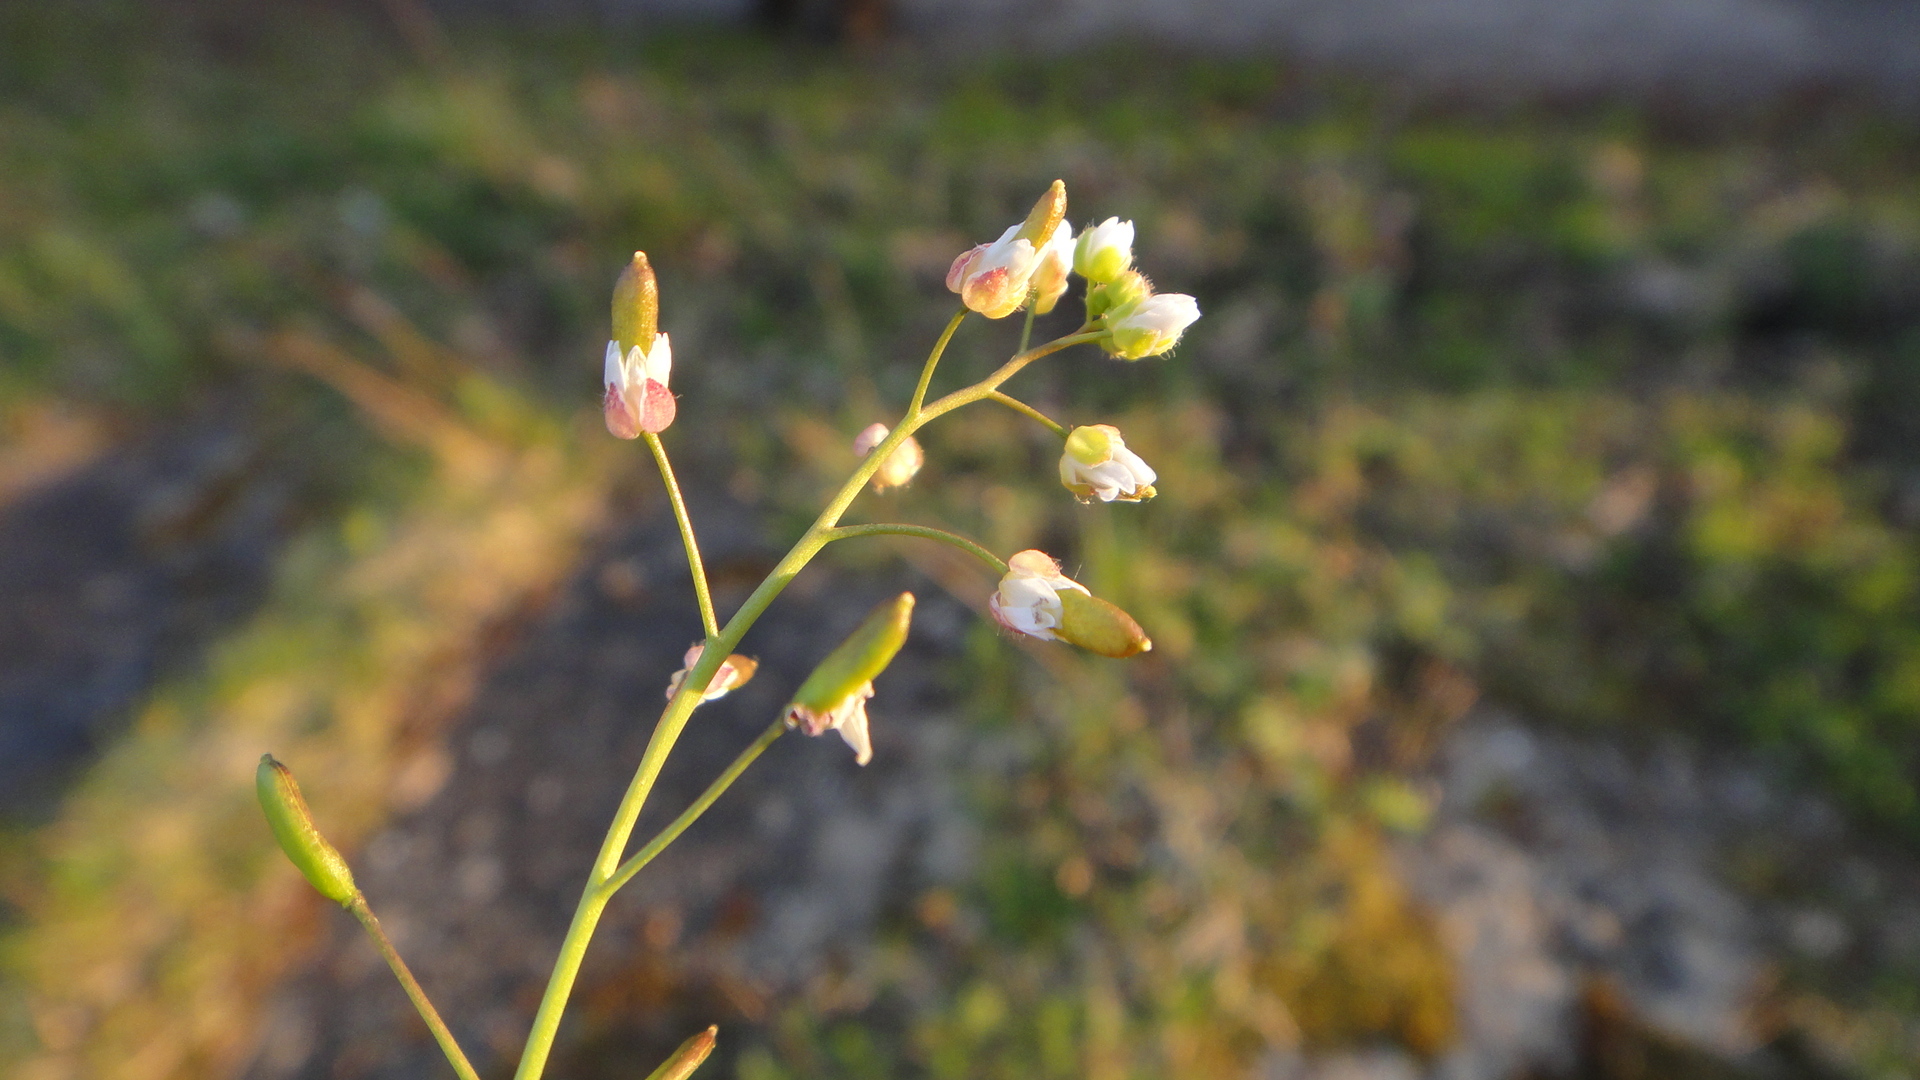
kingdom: Plantae
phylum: Tracheophyta
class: Magnoliopsida
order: Brassicales
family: Brassicaceae
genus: Draba
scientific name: Draba verna
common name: Spring draba
